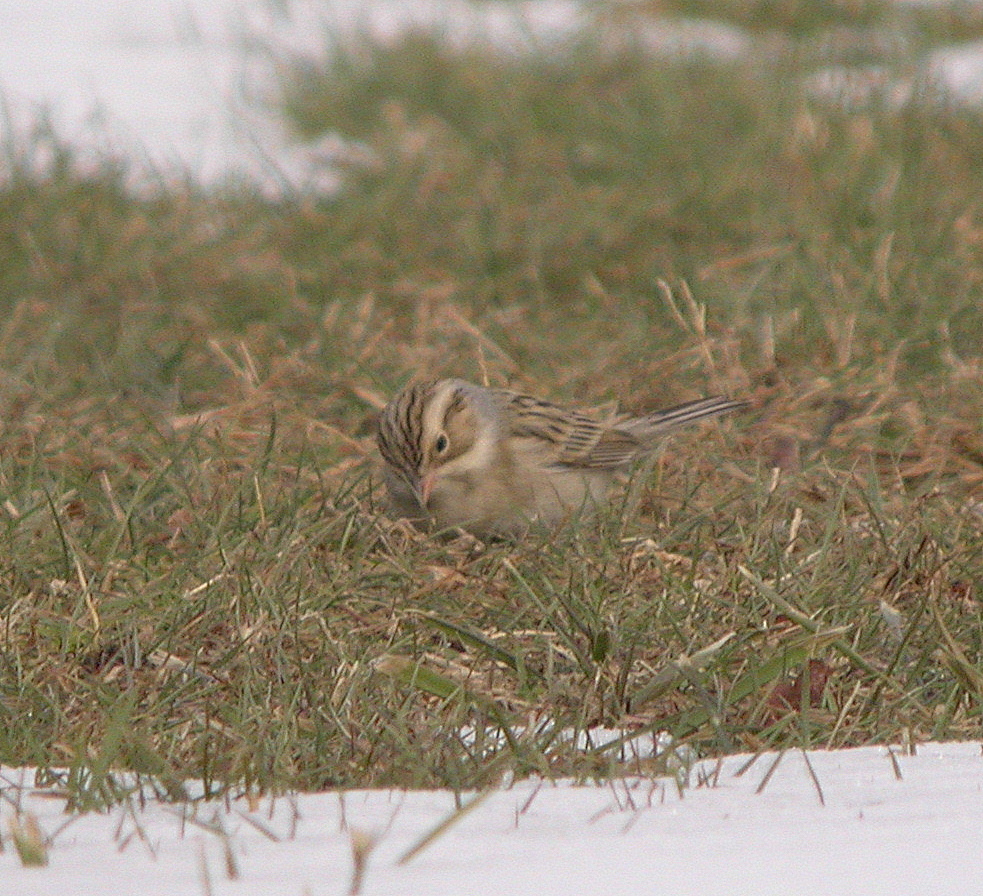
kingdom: Animalia
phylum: Chordata
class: Aves
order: Passeriformes
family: Passerellidae
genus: Spizella
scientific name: Spizella pallida
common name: Clay-colored sparrow
